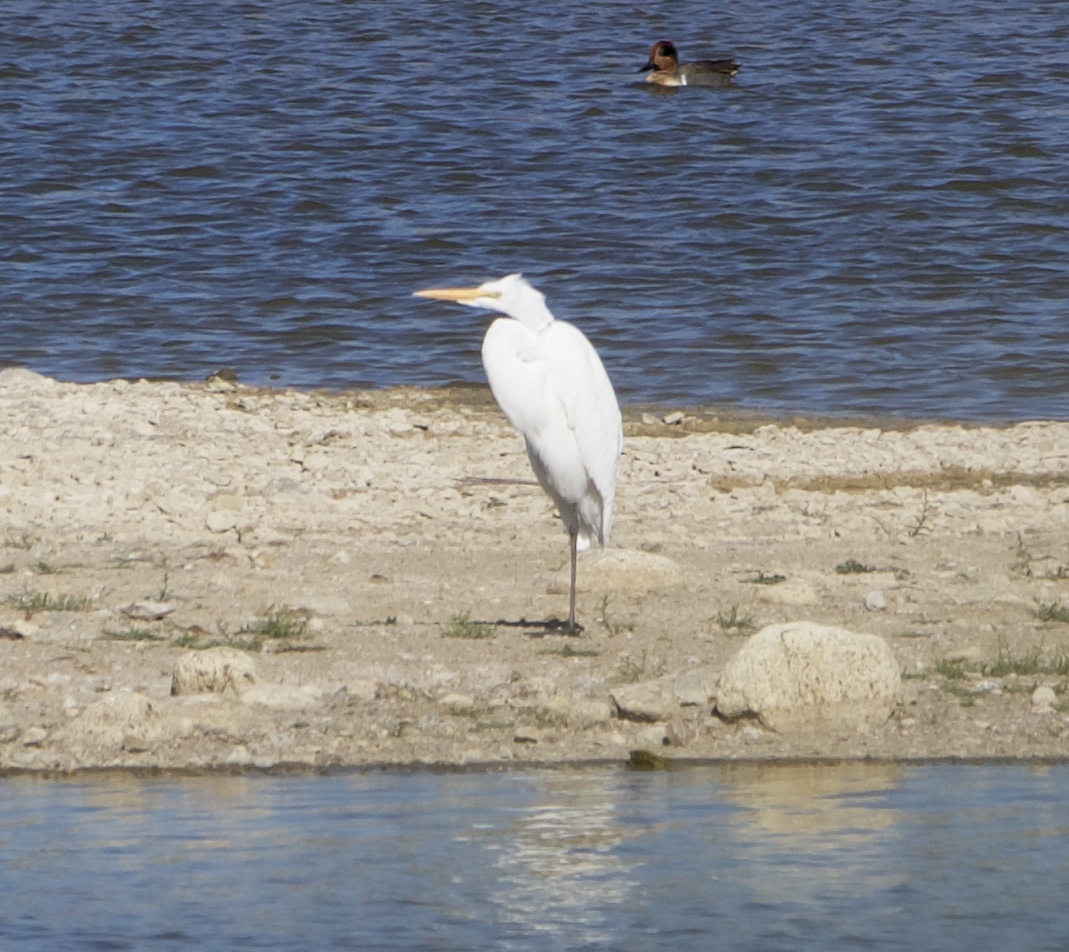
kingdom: Animalia
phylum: Chordata
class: Aves
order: Pelecaniformes
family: Ardeidae
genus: Ardea
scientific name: Ardea alba
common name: Great egret
